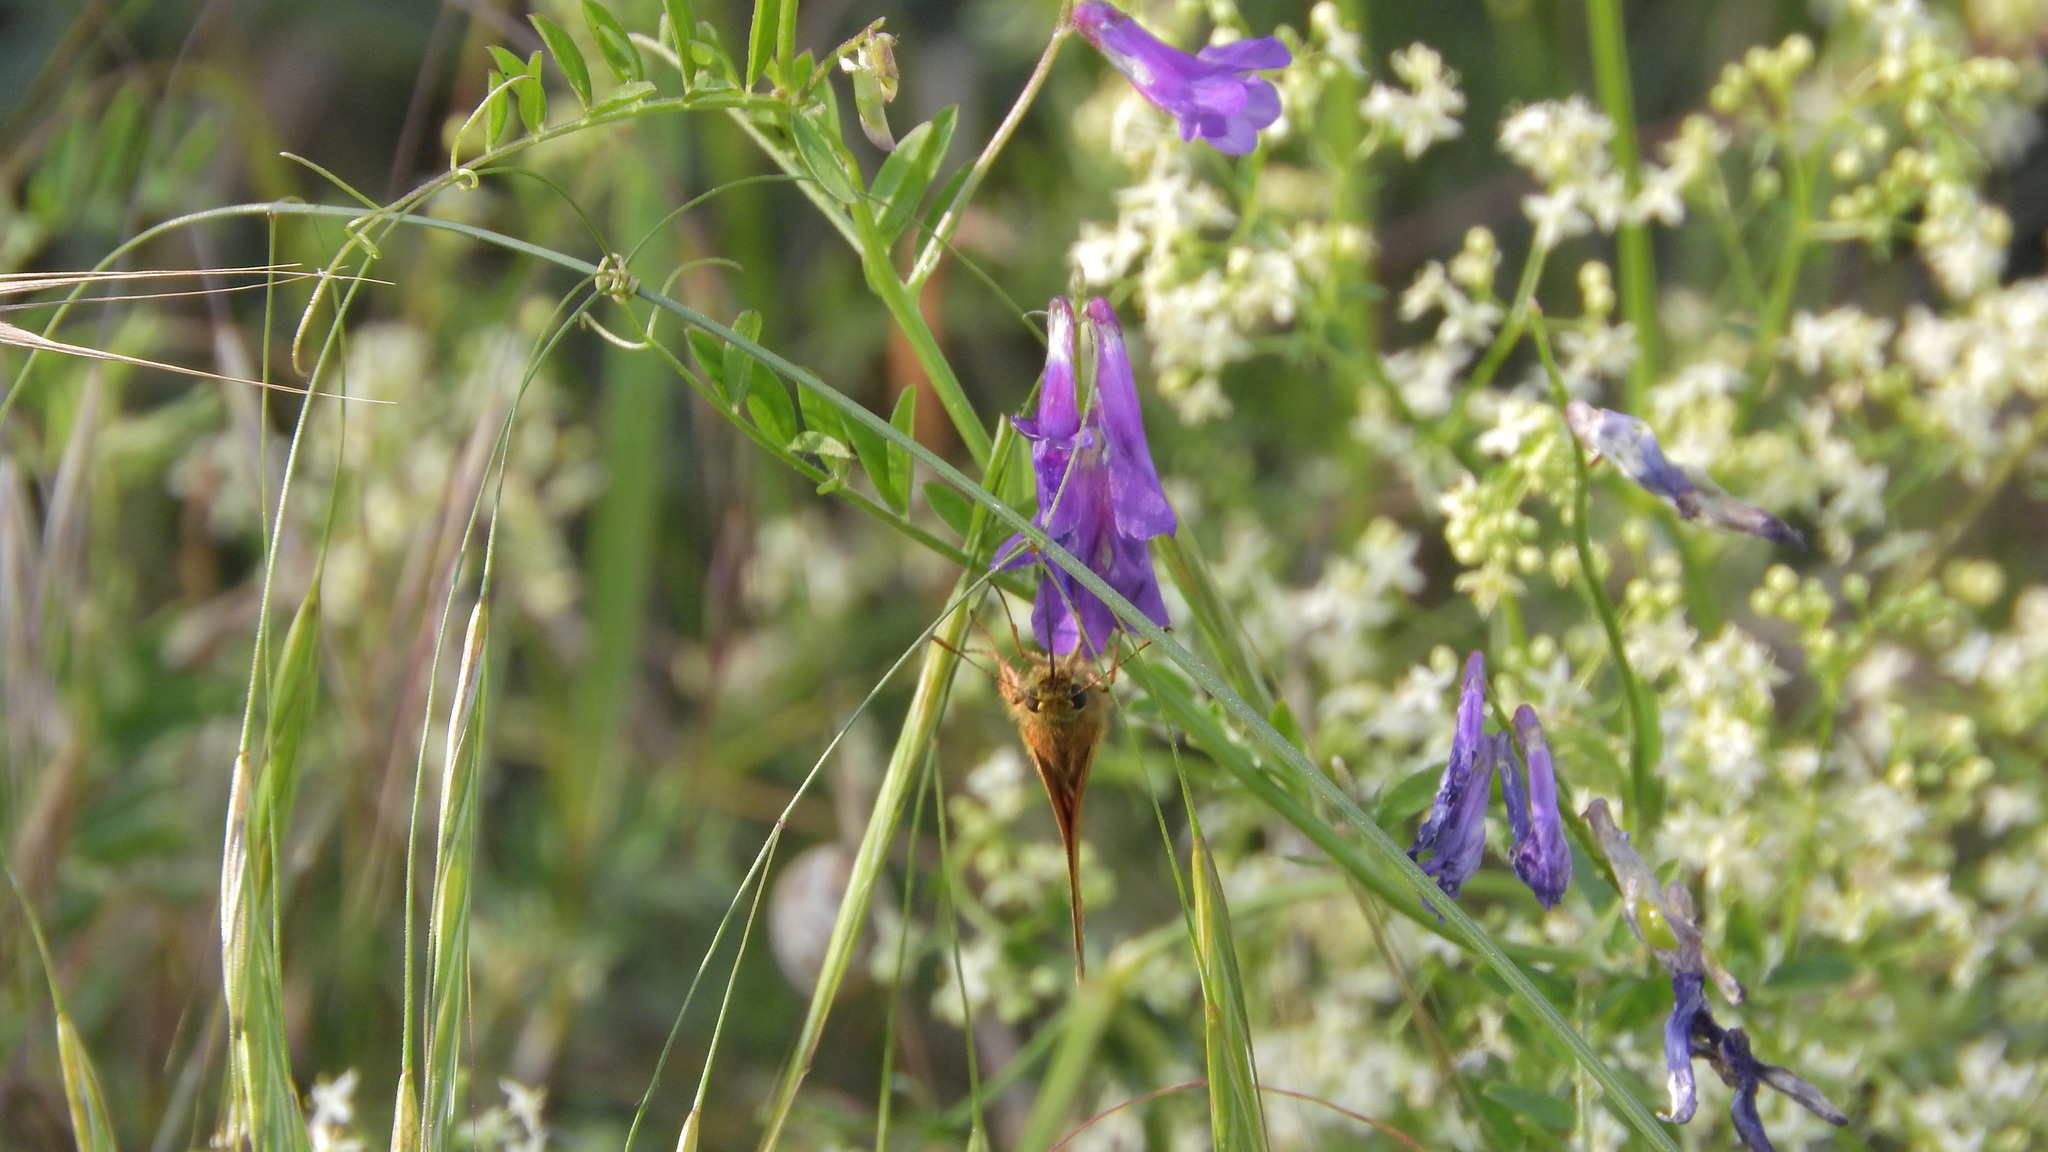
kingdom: Animalia
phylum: Arthropoda
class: Insecta
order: Lepidoptera
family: Hesperiidae
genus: Ochlodes
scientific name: Ochlodes venata
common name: Large skipper
